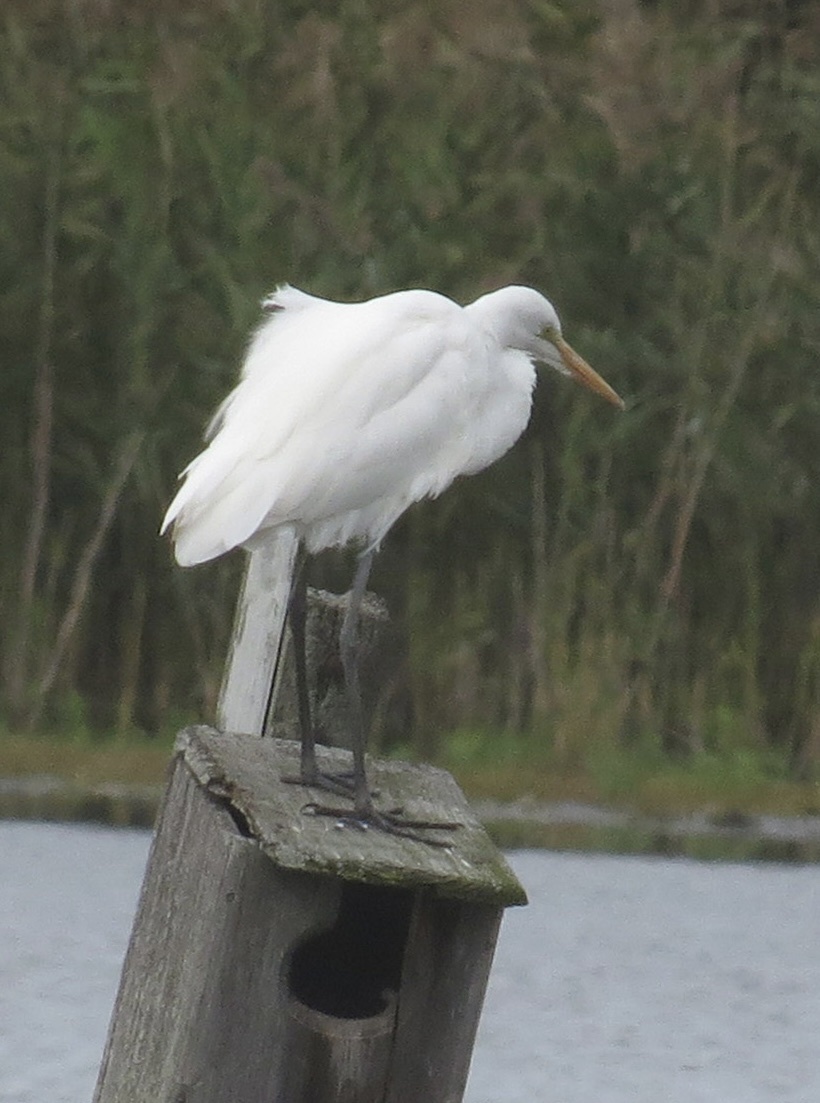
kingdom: Animalia
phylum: Chordata
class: Aves
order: Pelecaniformes
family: Ardeidae
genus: Ardea
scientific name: Ardea alba
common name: Great egret
